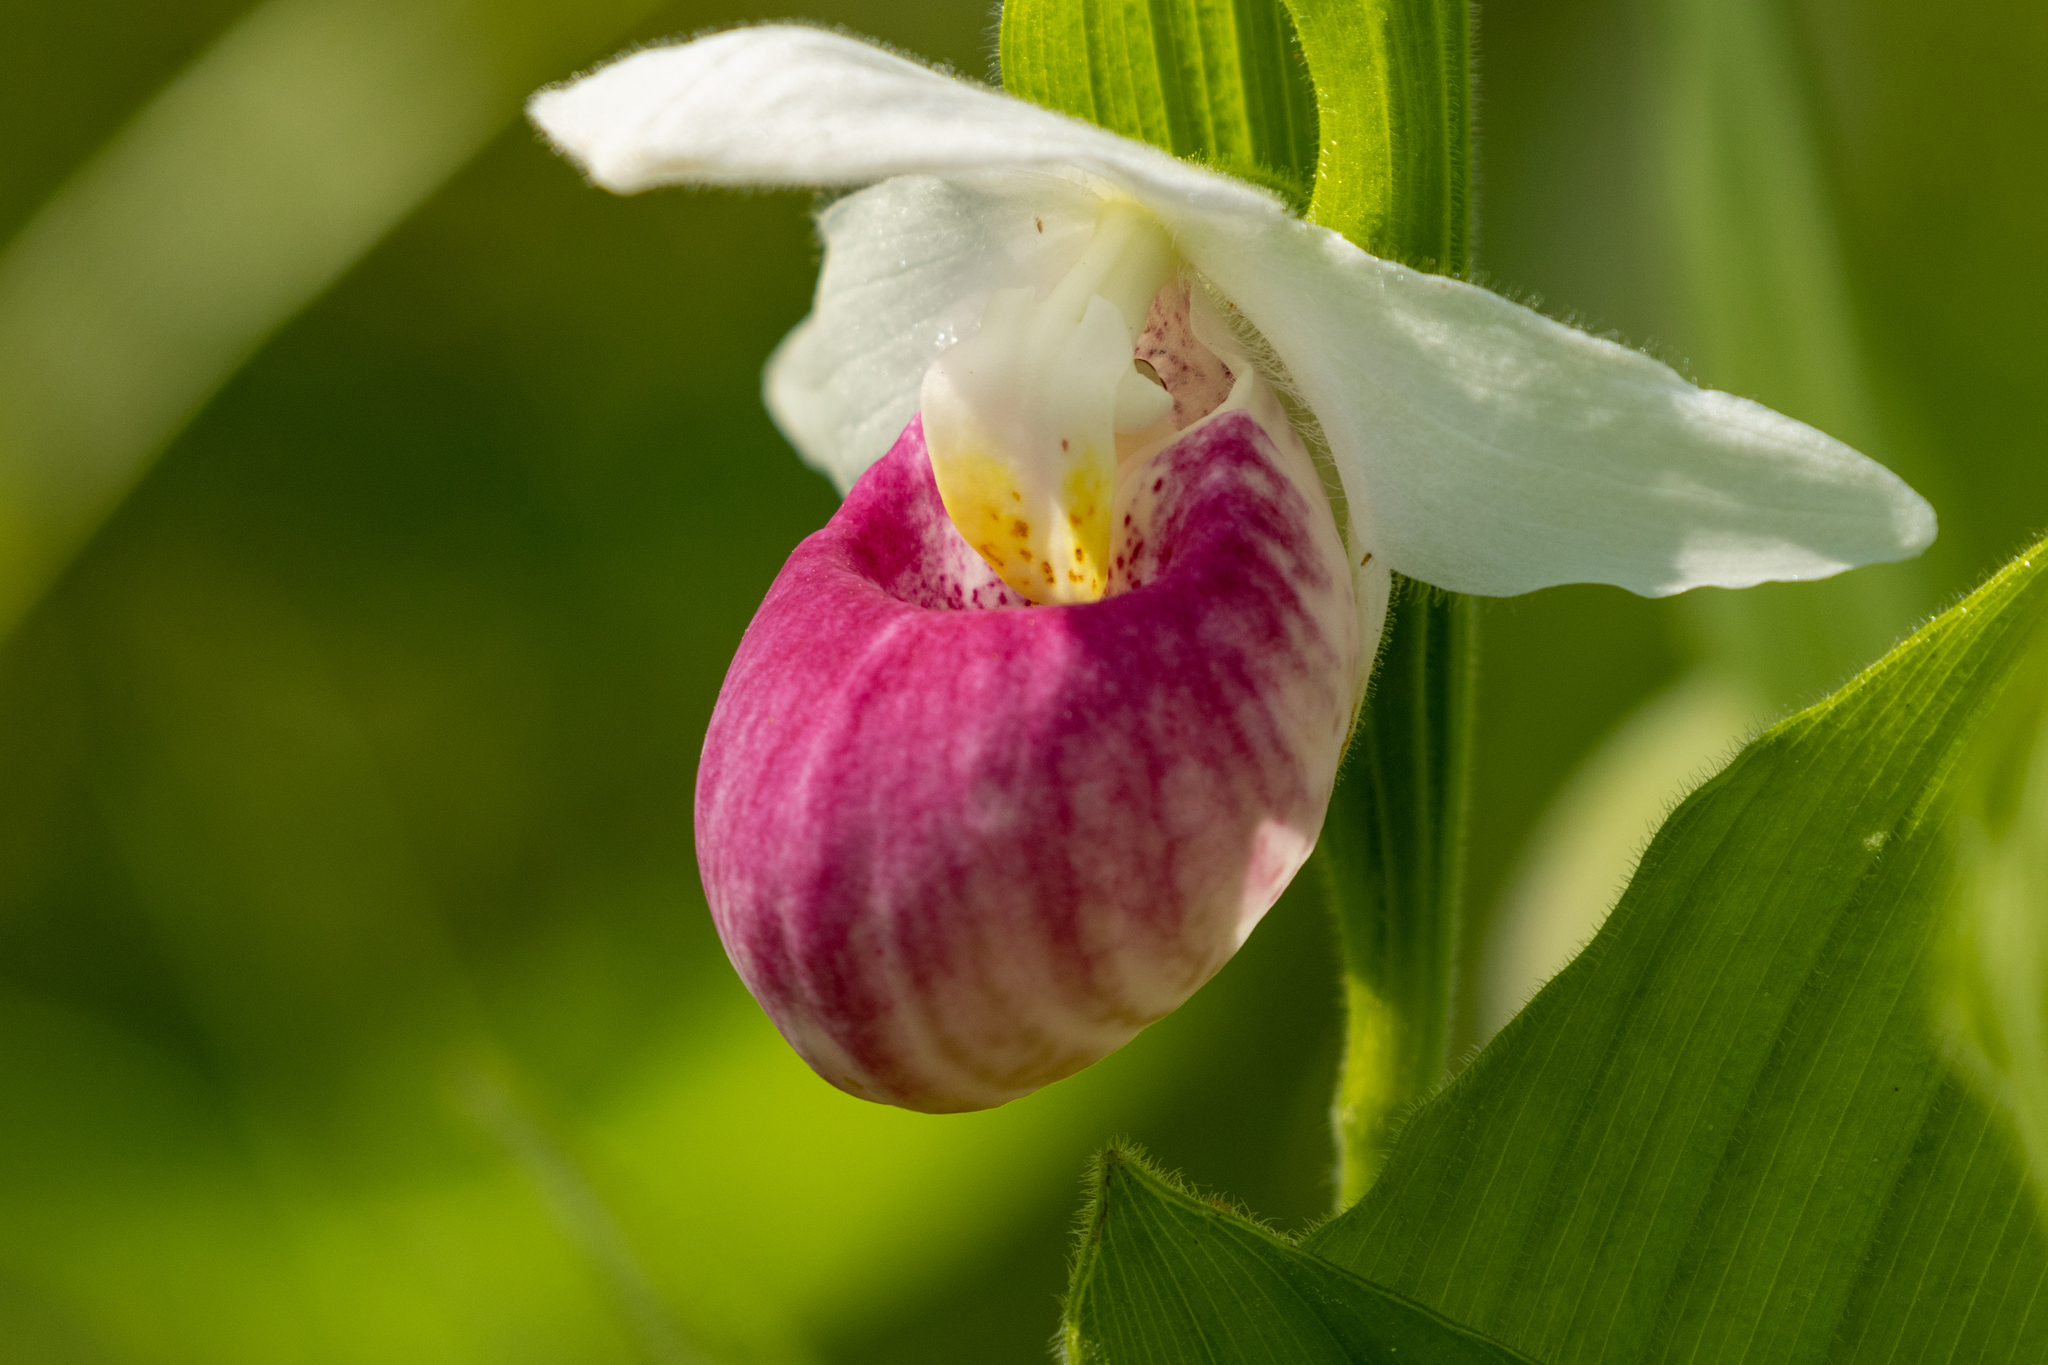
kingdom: Plantae
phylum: Tracheophyta
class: Liliopsida
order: Asparagales
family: Orchidaceae
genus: Cypripedium
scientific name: Cypripedium reginae
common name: Queen lady's-slipper
